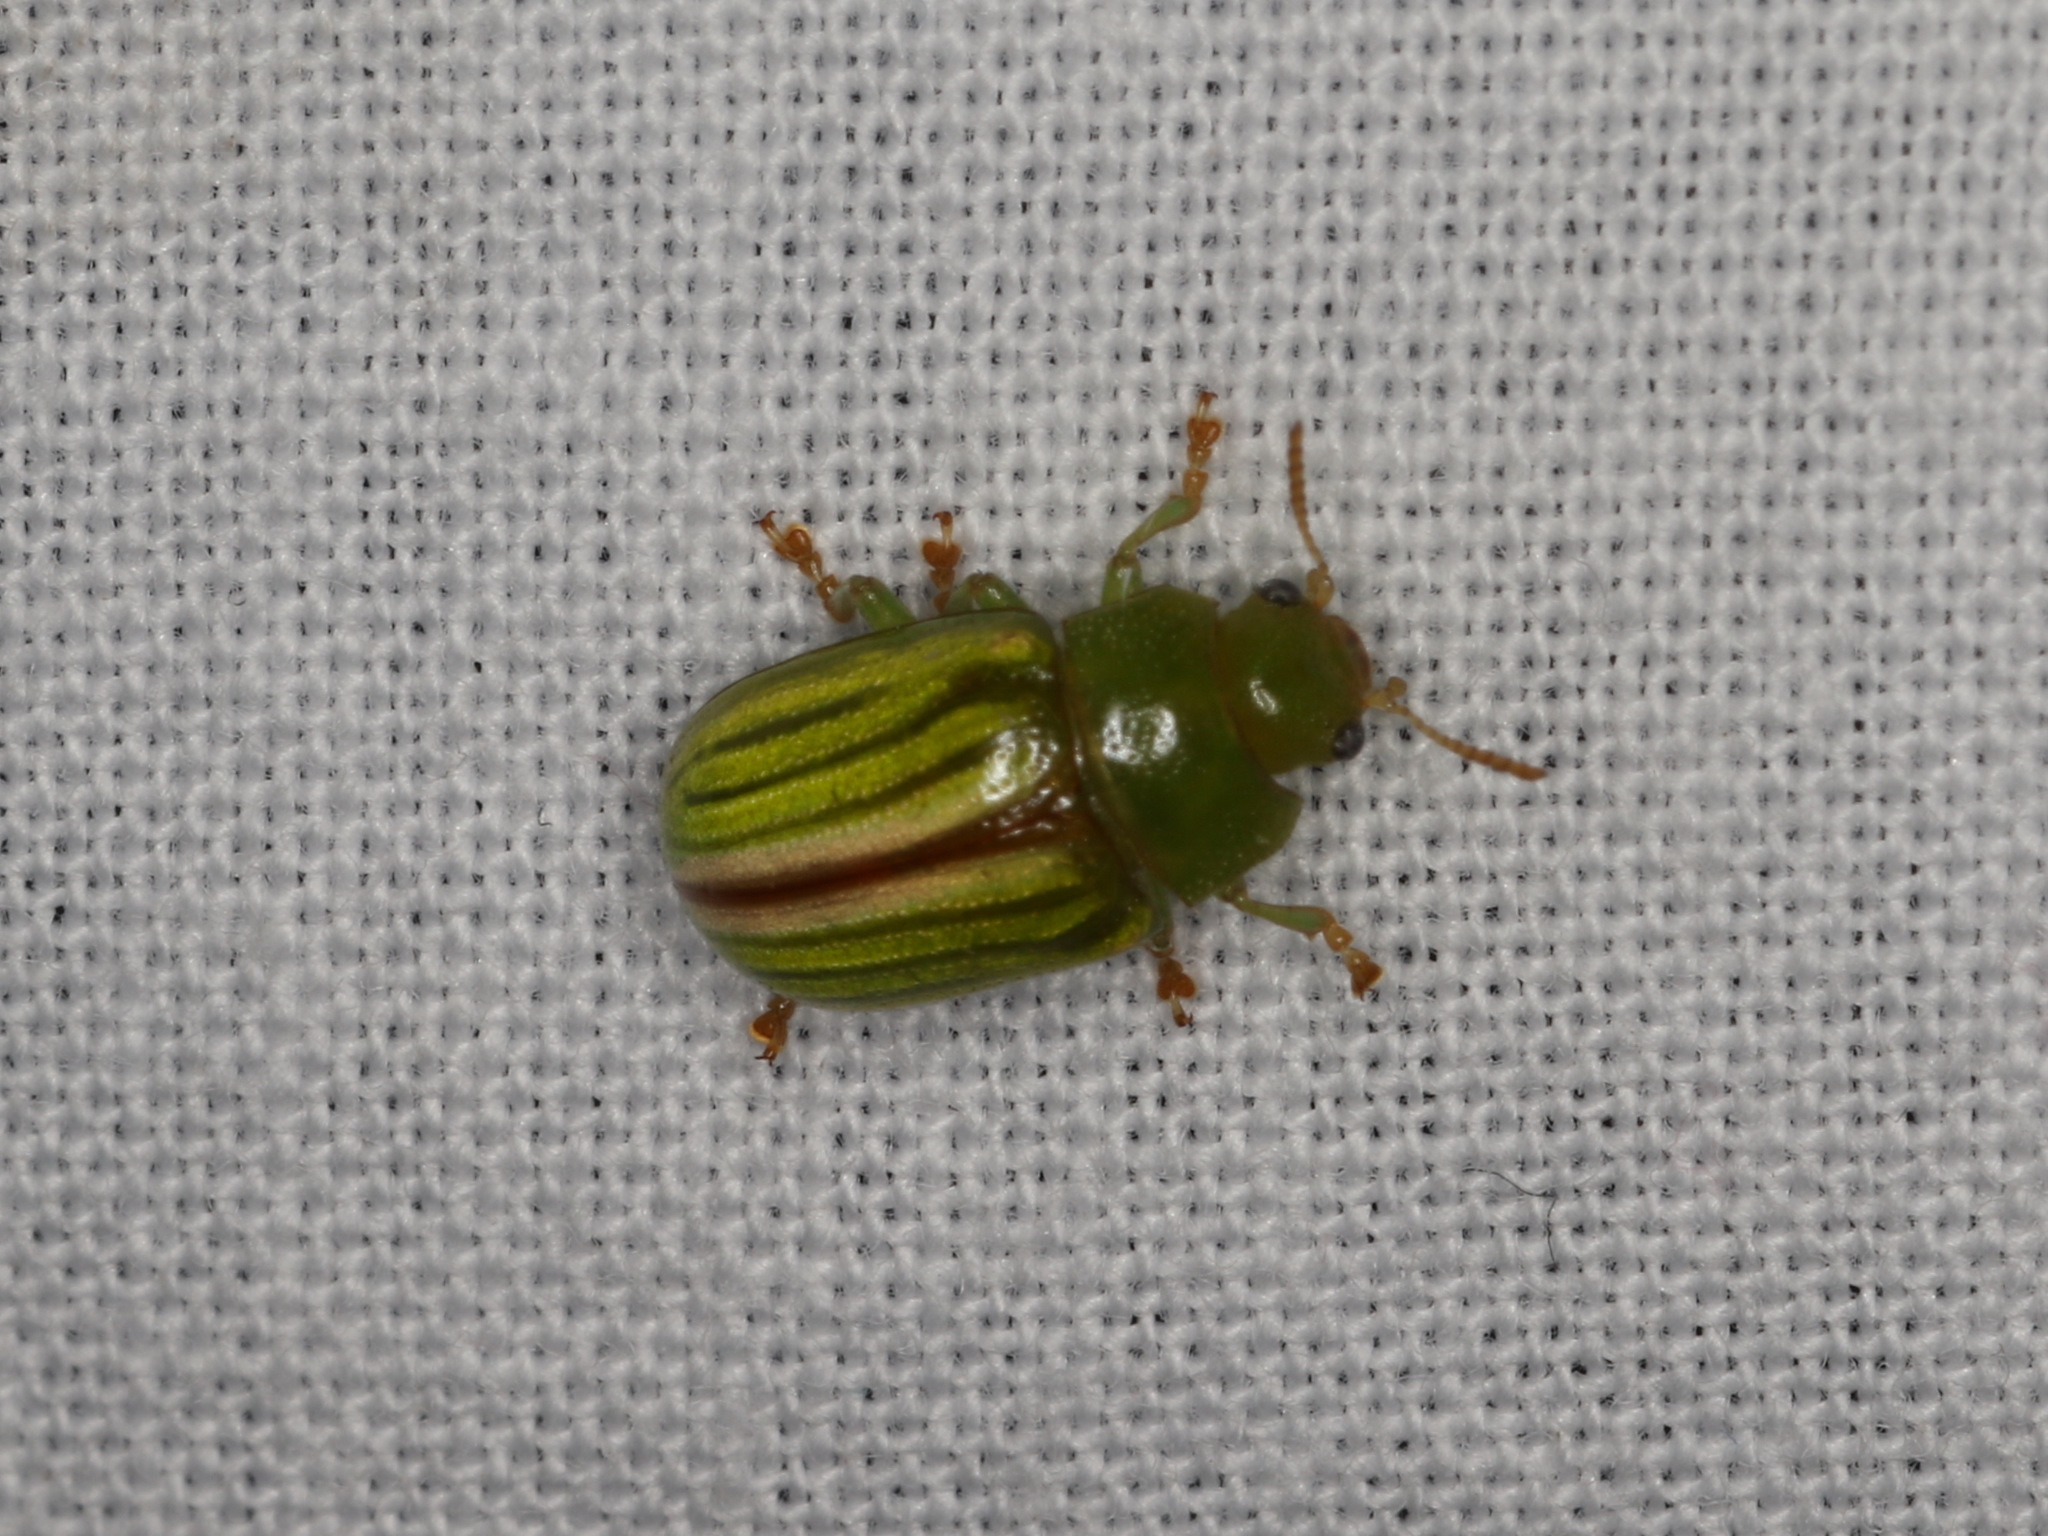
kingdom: Animalia
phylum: Arthropoda
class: Insecta
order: Coleoptera
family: Chrysomelidae
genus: Calomela
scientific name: Calomela intemerata
